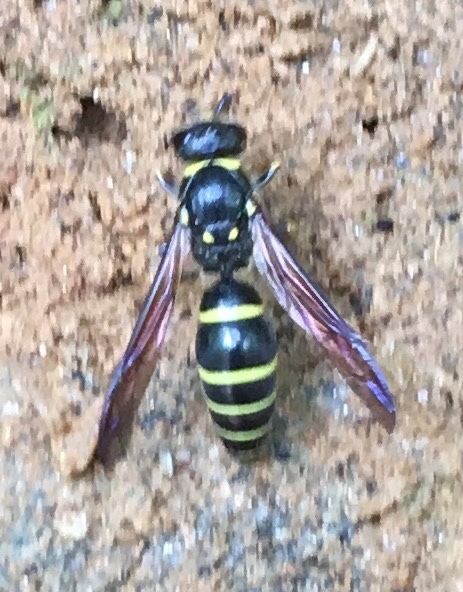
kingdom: Animalia
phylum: Arthropoda
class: Insecta
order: Hymenoptera
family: Vespidae
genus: Ancistrocerus
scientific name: Ancistrocerus
